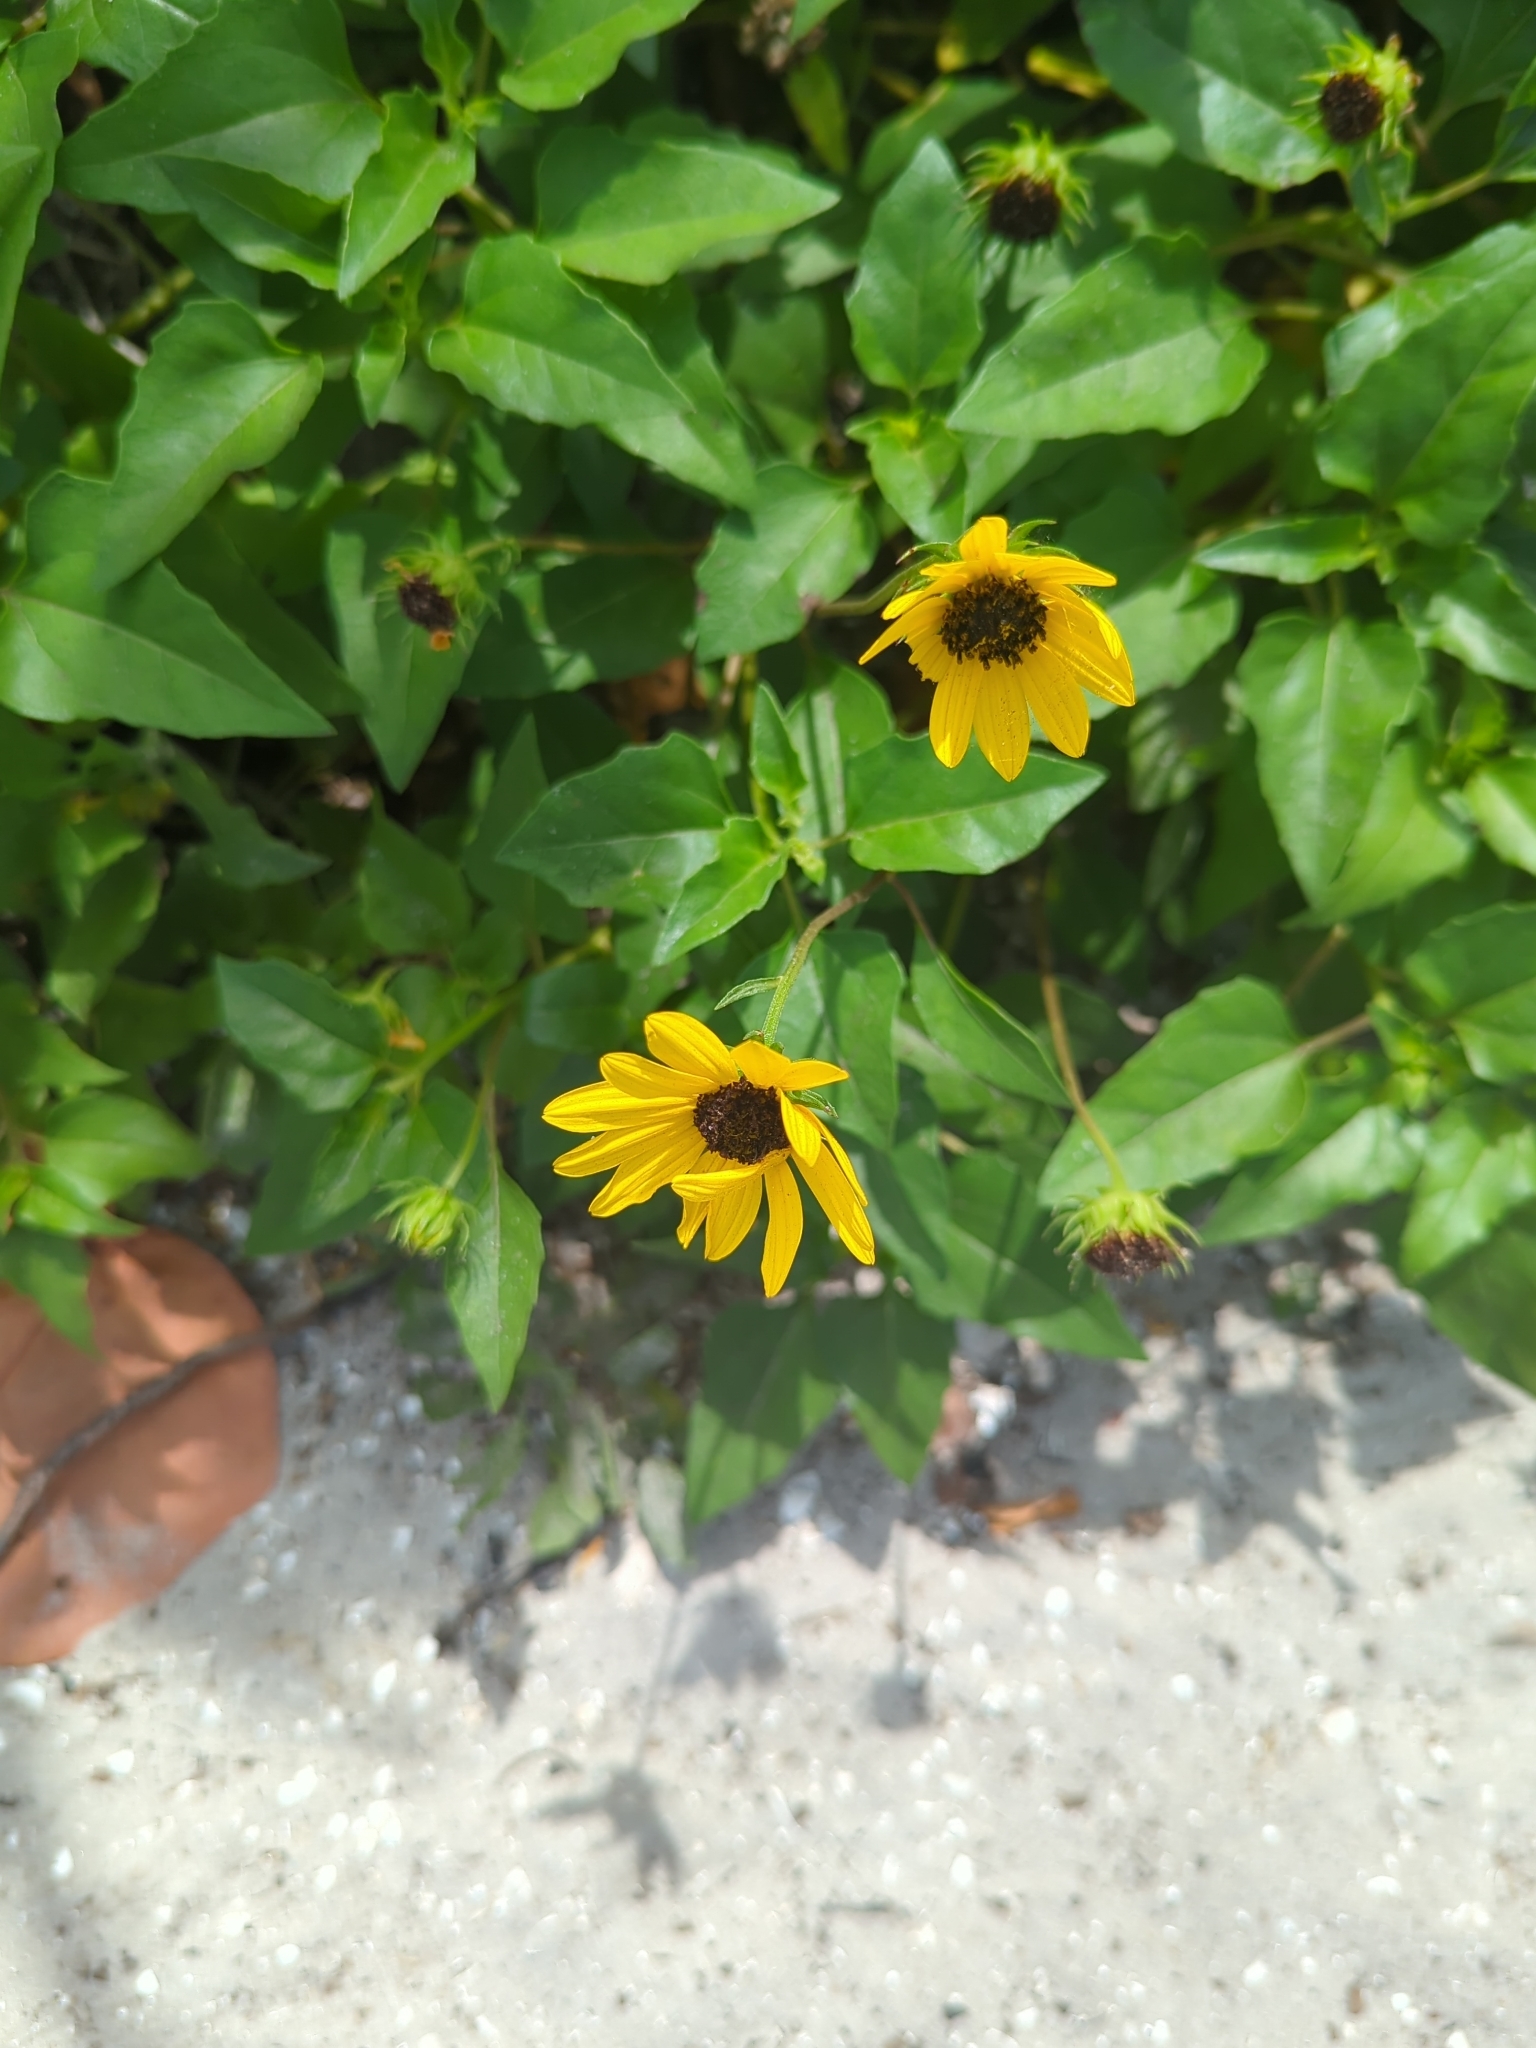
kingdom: Plantae
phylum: Tracheophyta
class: Magnoliopsida
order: Asterales
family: Asteraceae
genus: Helianthus
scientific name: Helianthus debilis
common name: Weak sunflower
